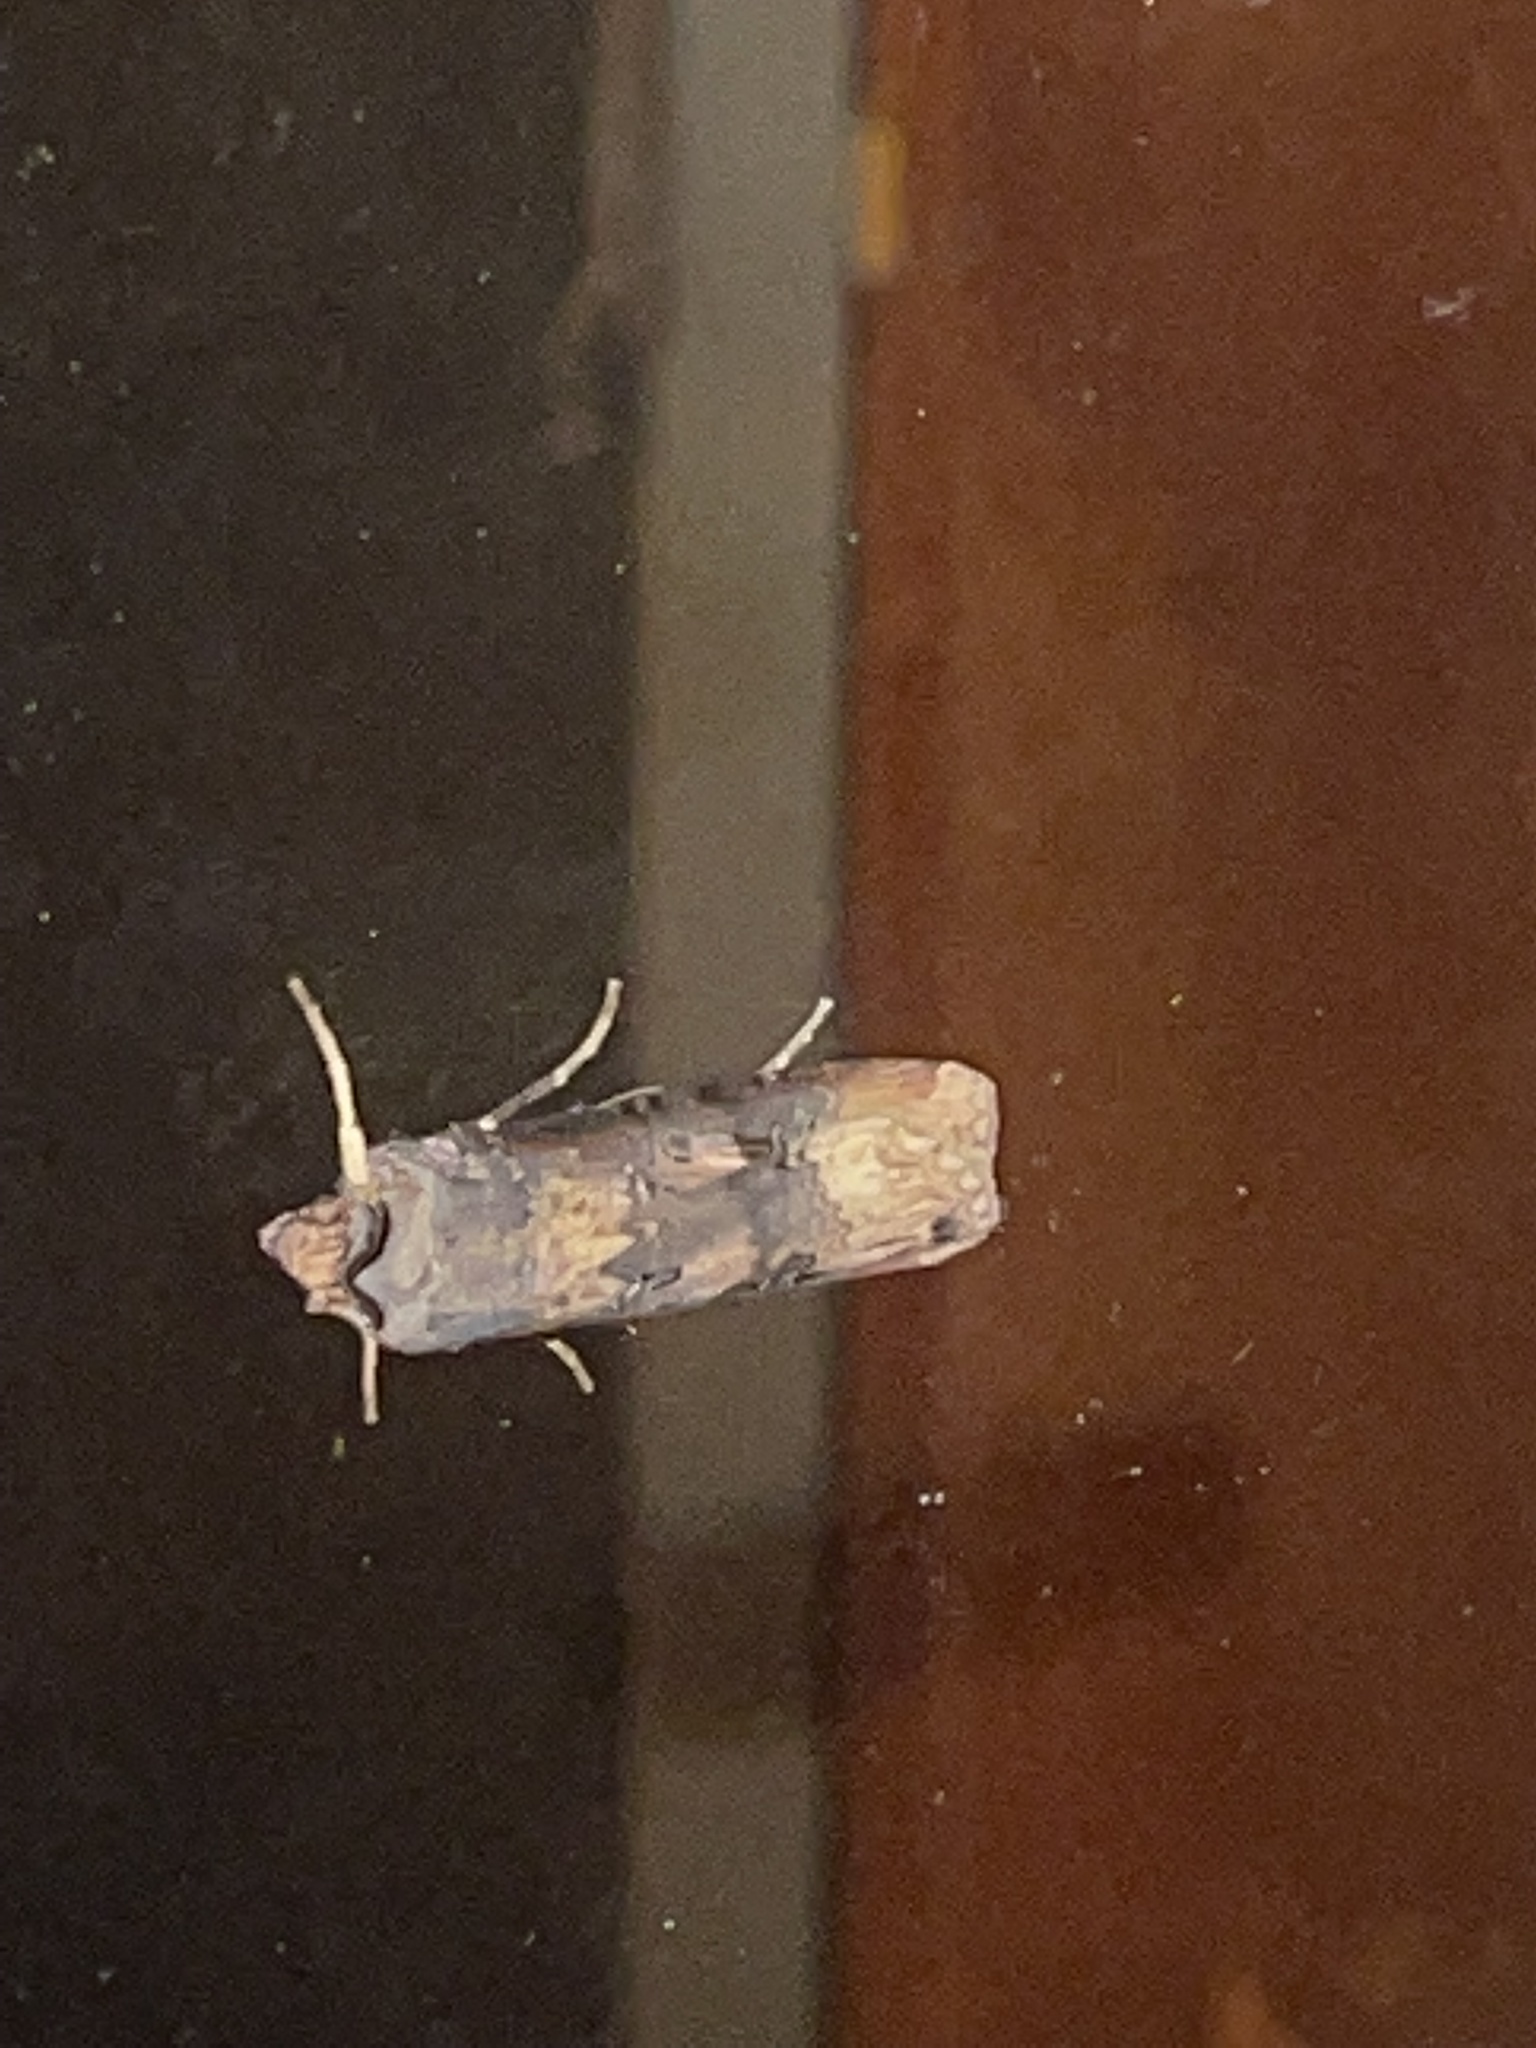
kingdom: Animalia
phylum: Arthropoda
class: Insecta
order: Lepidoptera
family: Noctuidae
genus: Agrotis
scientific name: Agrotis ipsilon
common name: Dark sword-grass
